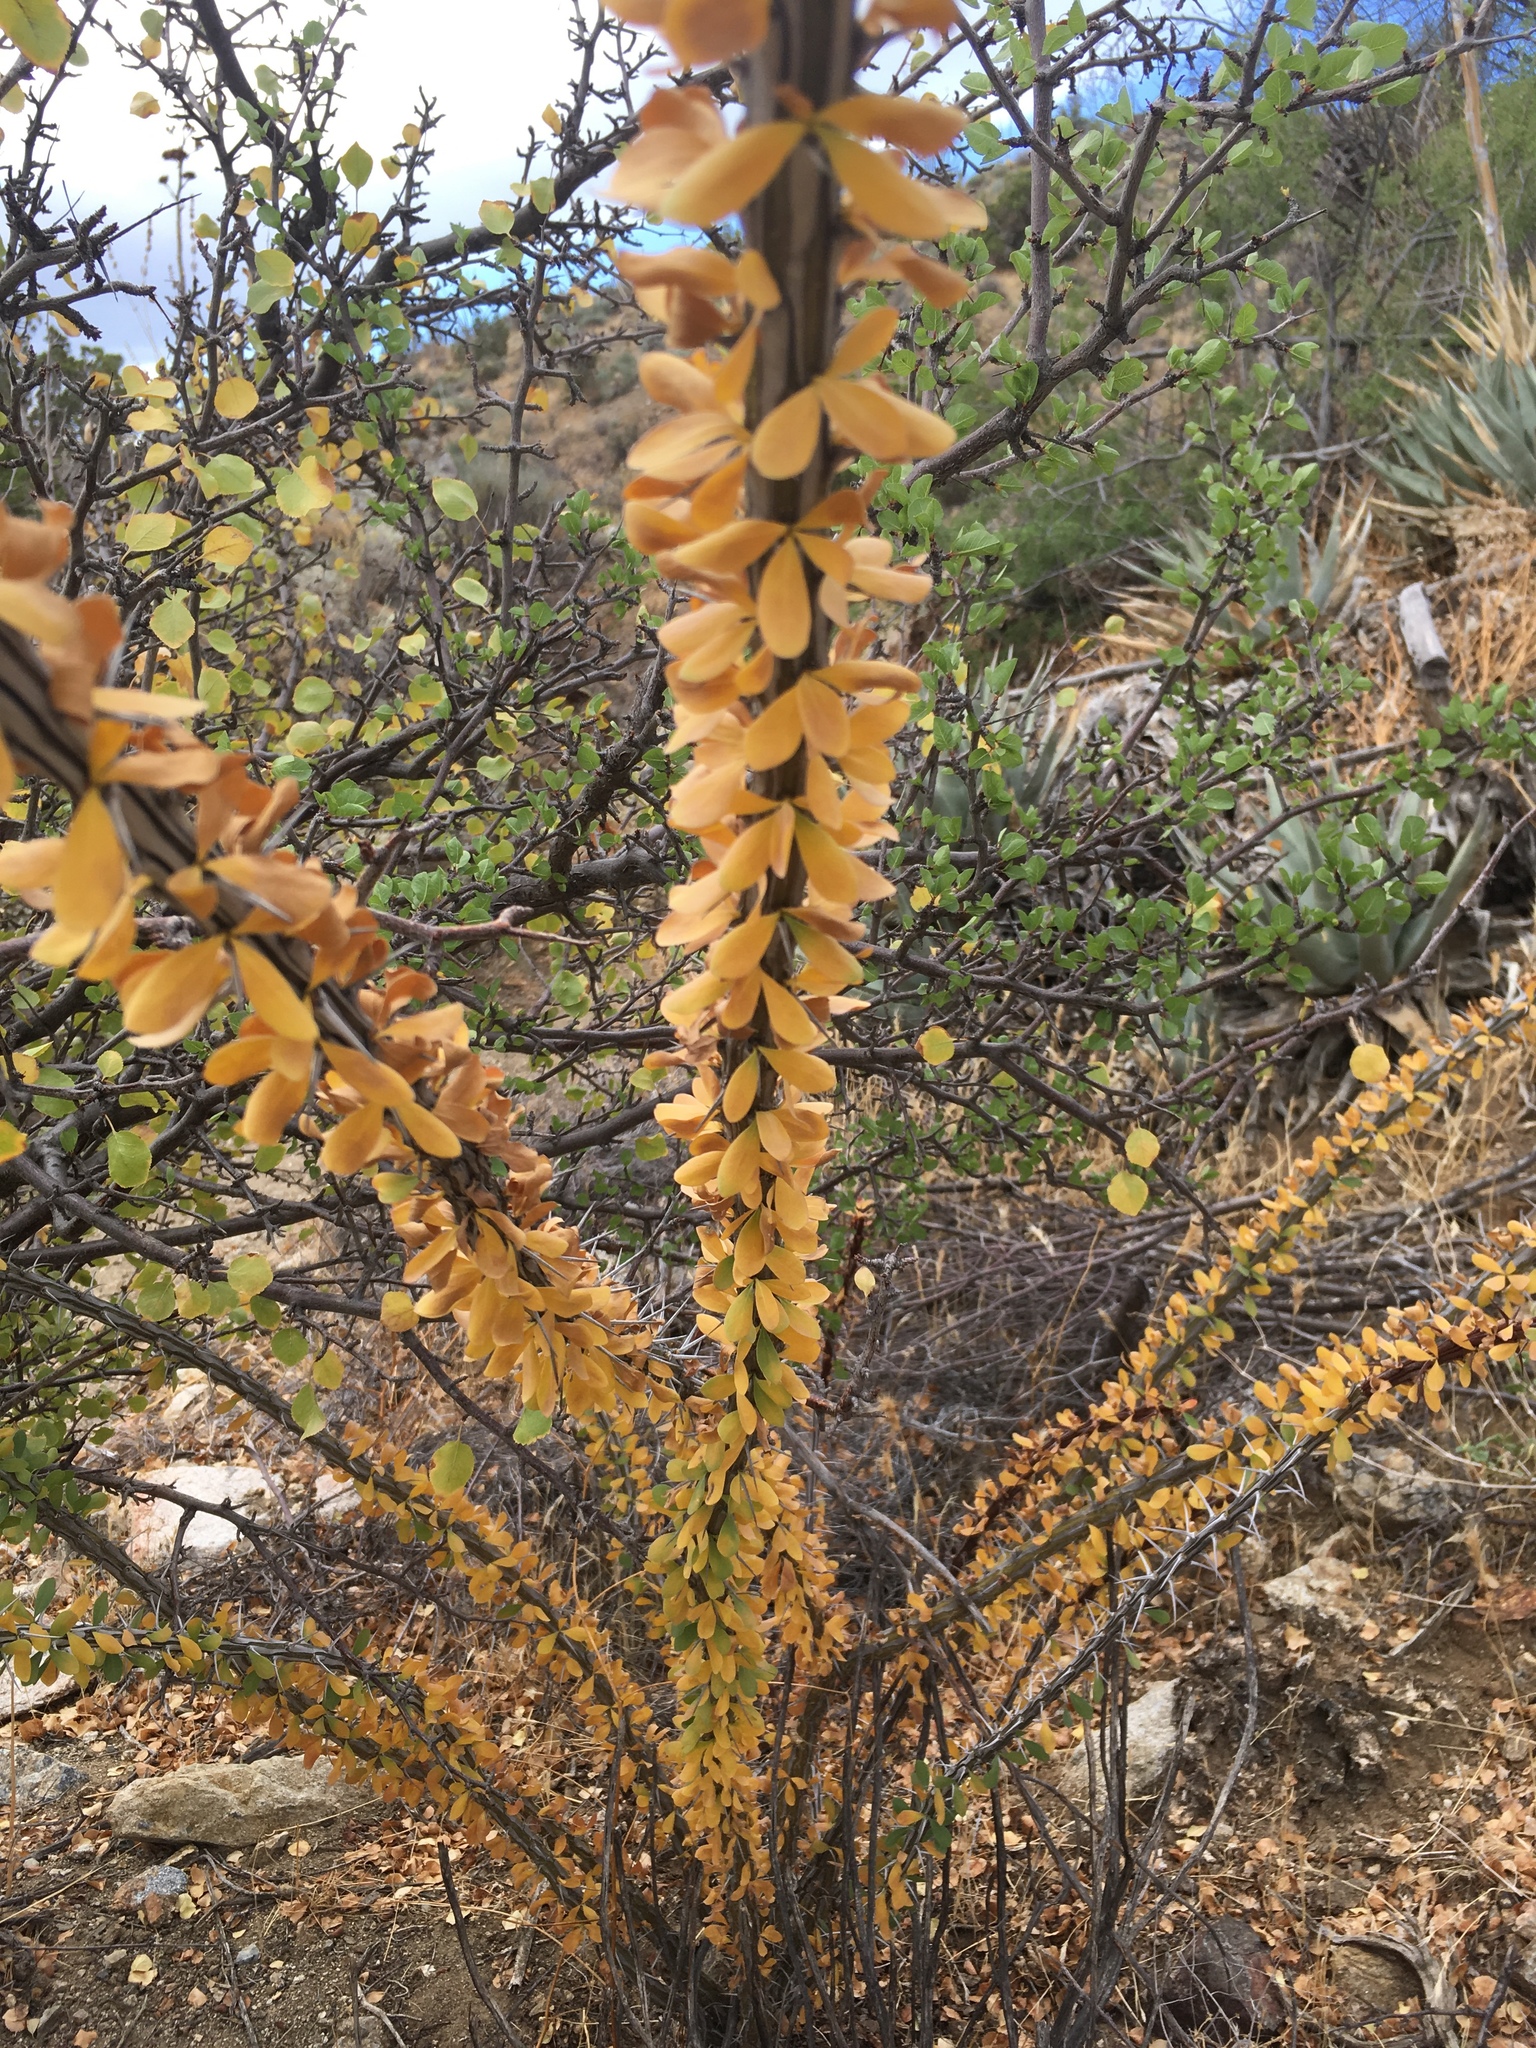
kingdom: Plantae
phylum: Tracheophyta
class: Magnoliopsida
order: Ericales
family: Fouquieriaceae
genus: Fouquieria
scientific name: Fouquieria splendens
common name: Vine-cactus
